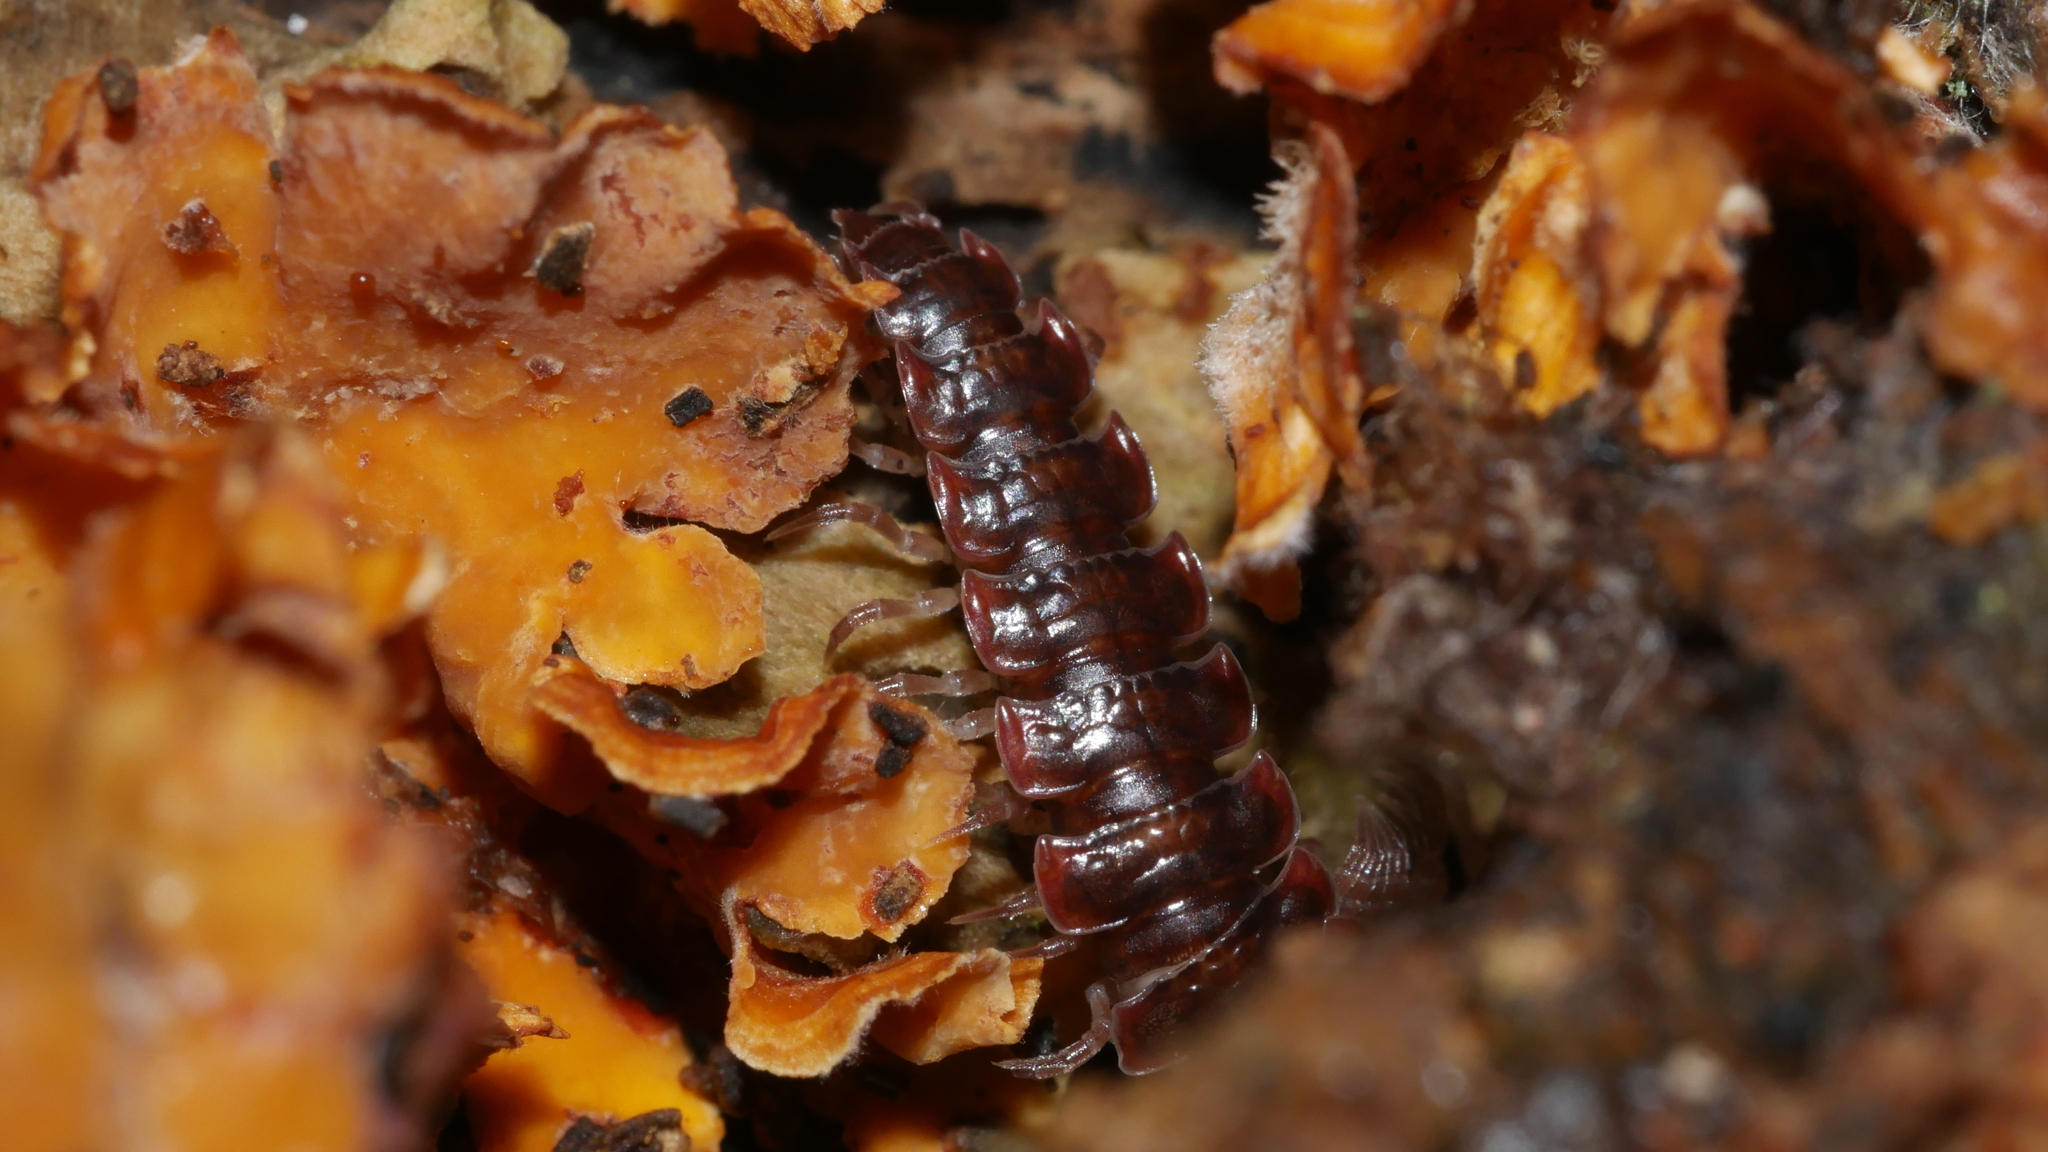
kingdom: Animalia
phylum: Arthropoda
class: Diplopoda
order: Polydesmida
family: Polydesmidae
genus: Pseudopolydesmus
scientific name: Pseudopolydesmus serratus
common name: Common pink flat-back millipede
